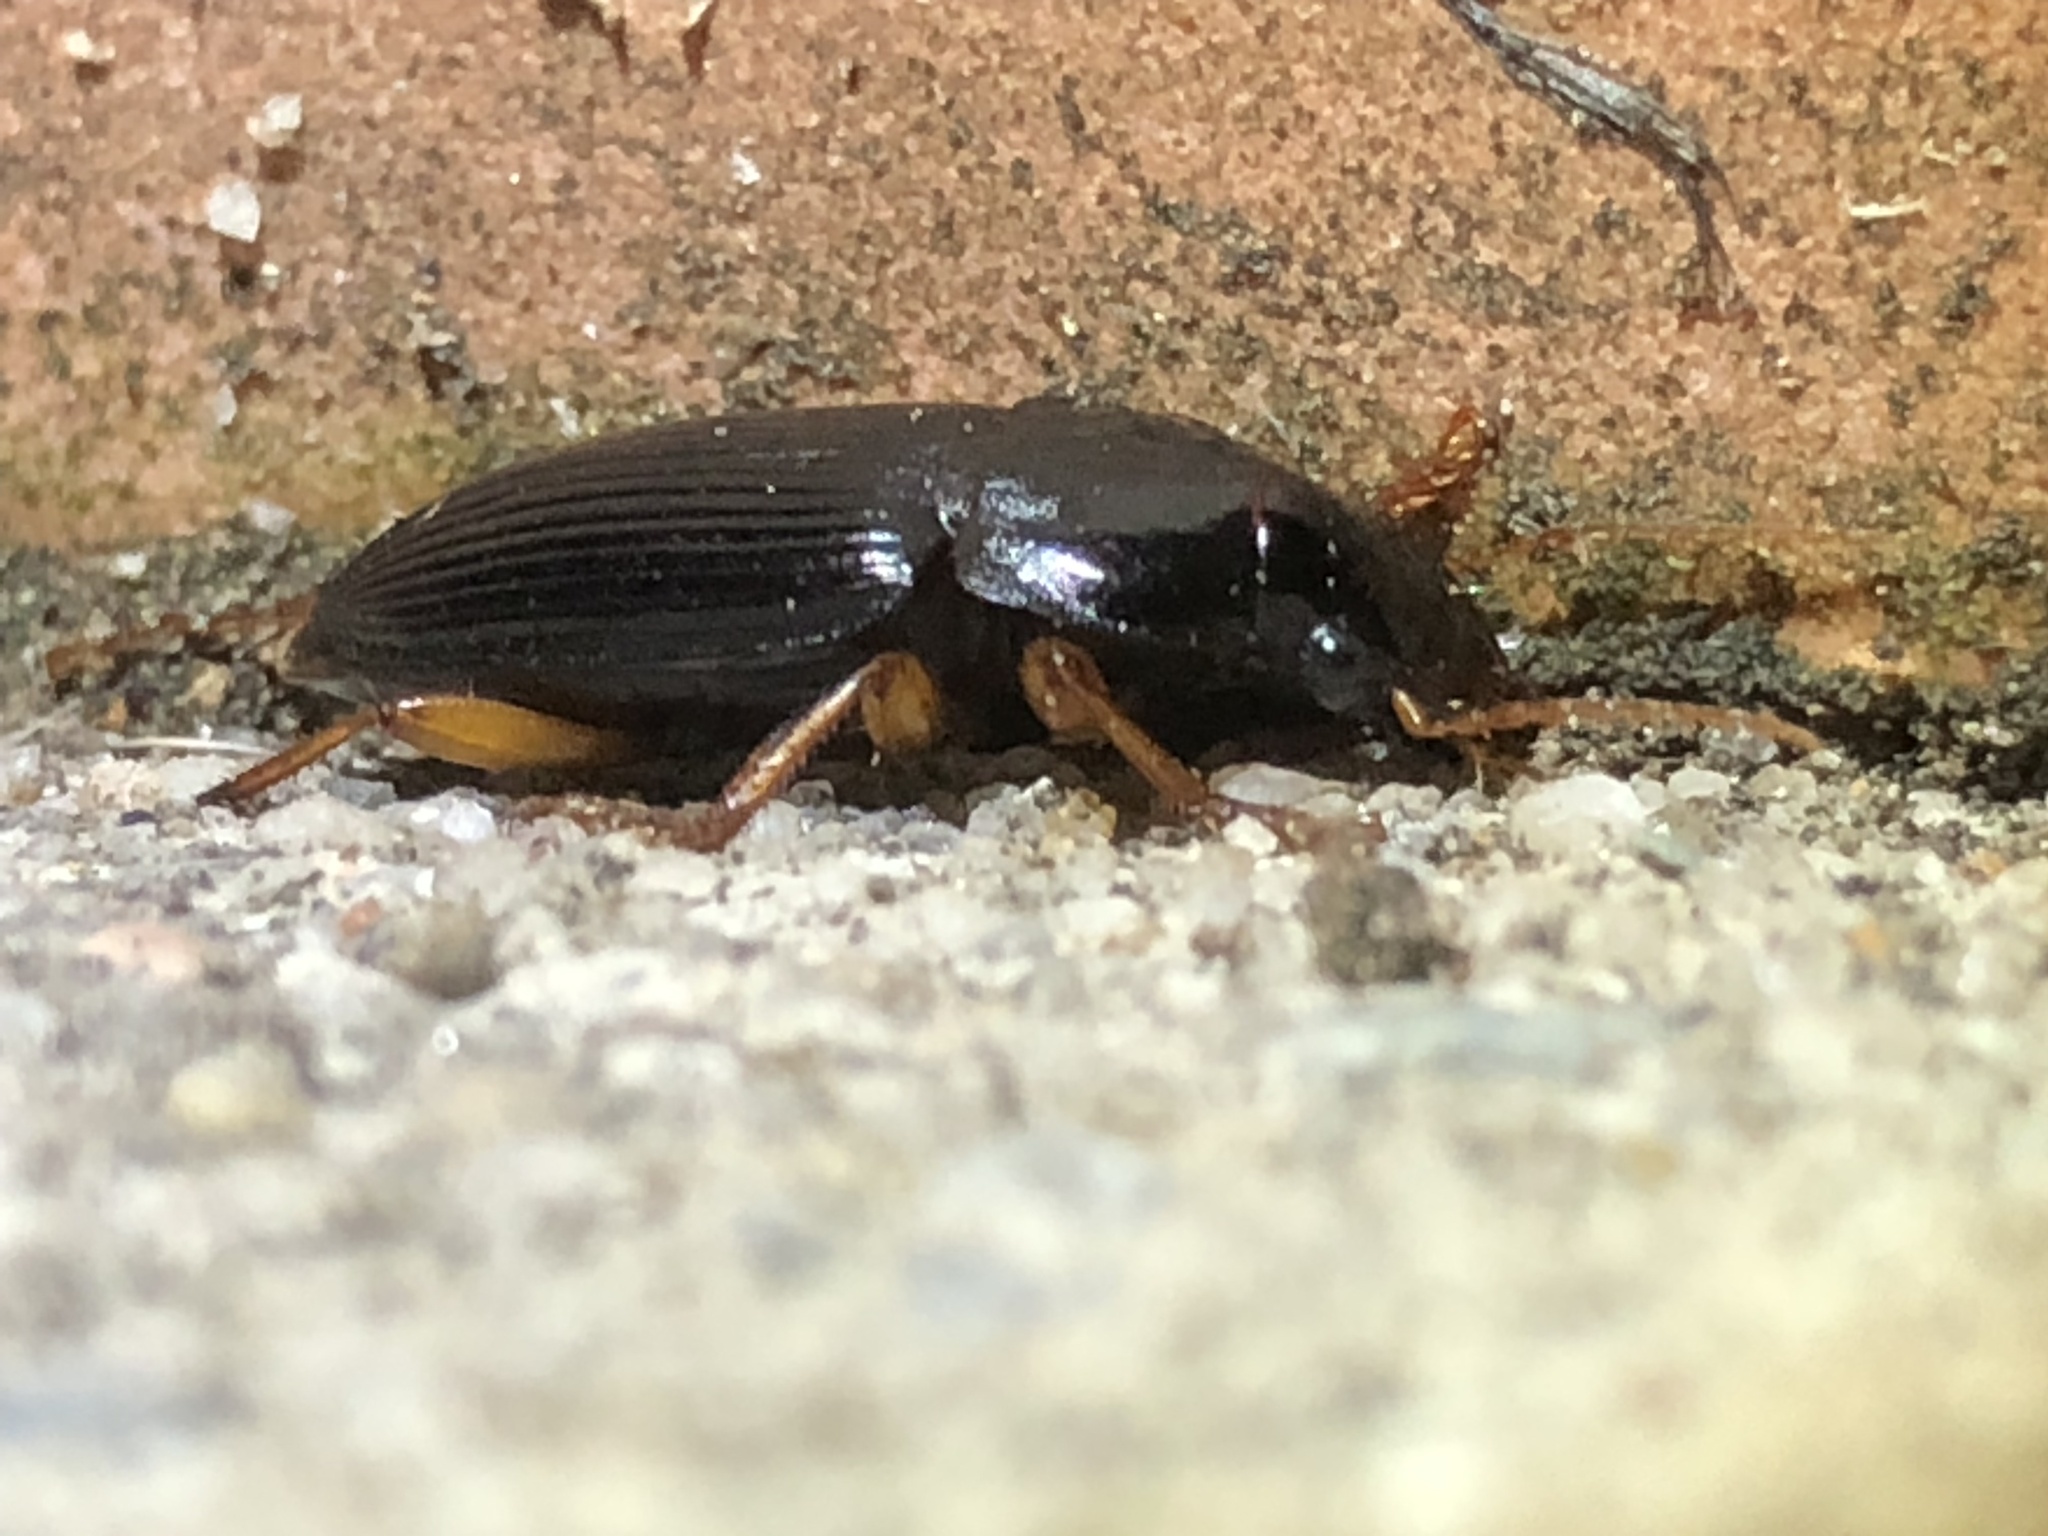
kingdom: Animalia
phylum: Arthropoda
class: Insecta
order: Coleoptera
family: Carabidae
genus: Harpalus
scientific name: Harpalus pensylvanicus
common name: Pennsylvania dingy ground beetle
